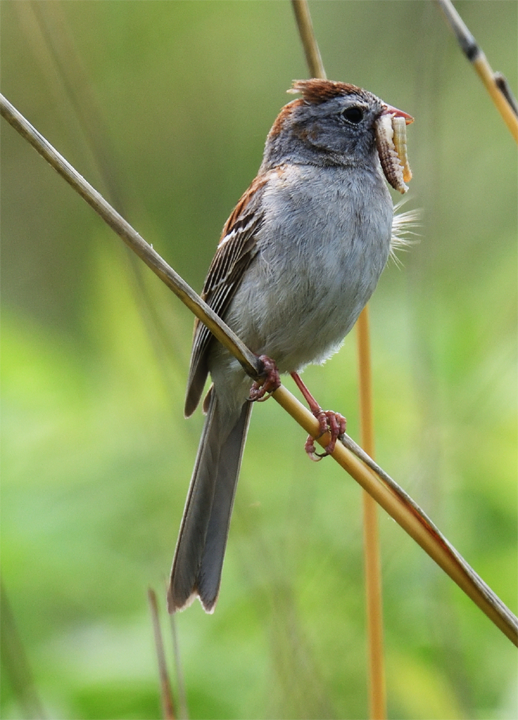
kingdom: Animalia
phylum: Chordata
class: Aves
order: Passeriformes
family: Passerellidae
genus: Spizella
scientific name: Spizella pusilla
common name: Field sparrow
